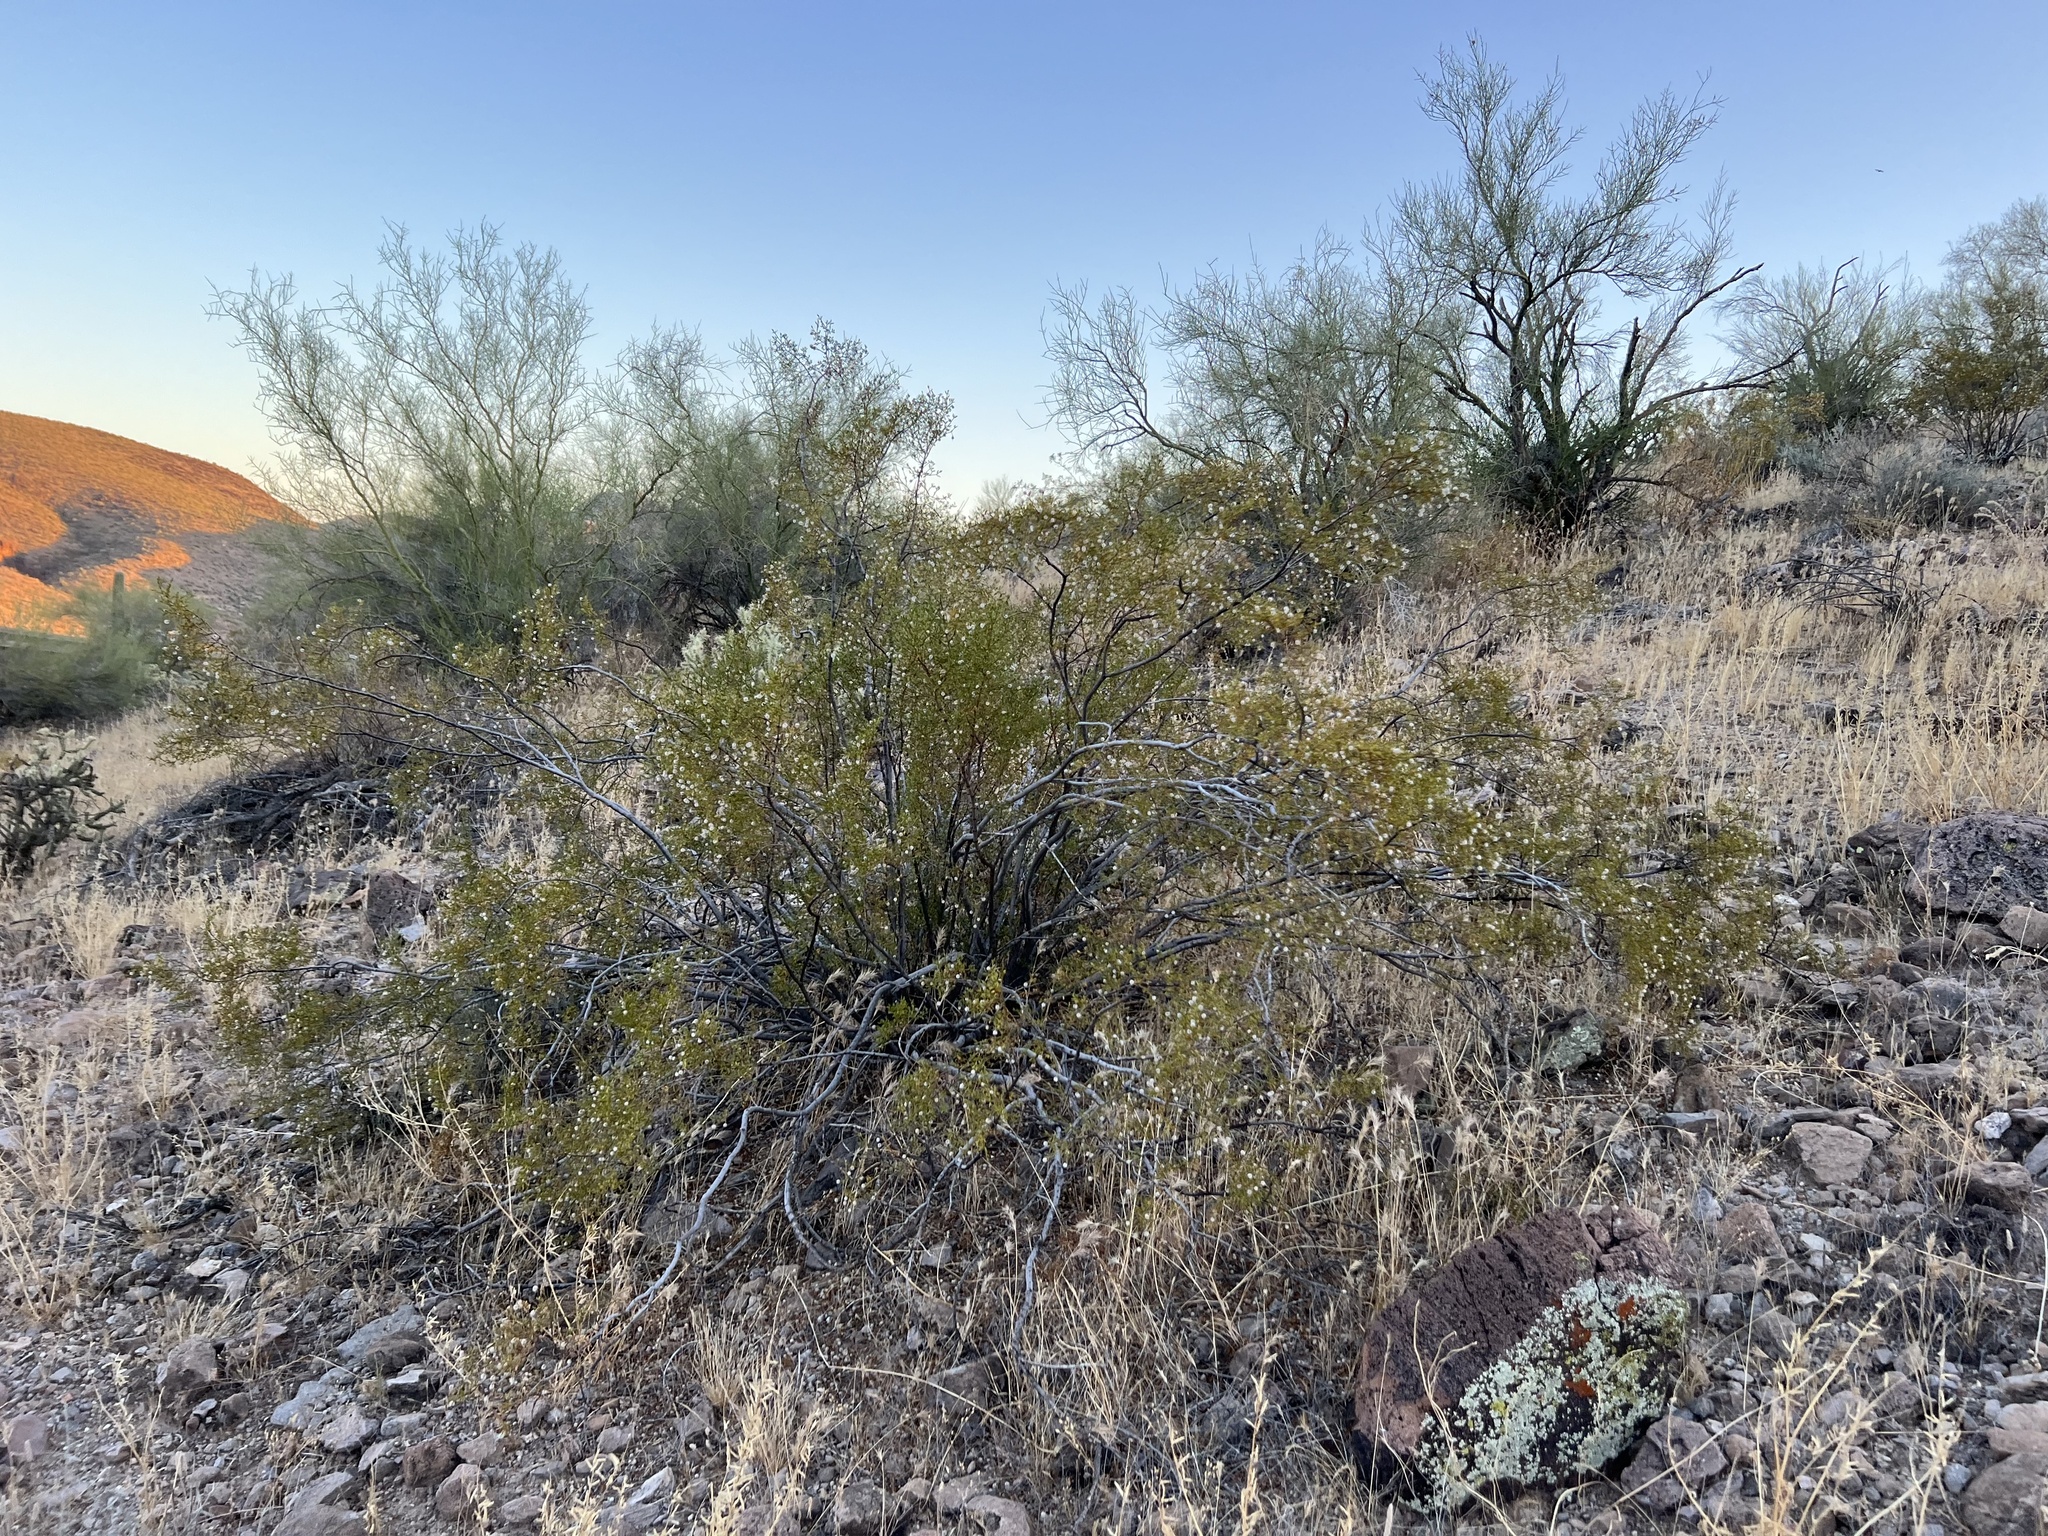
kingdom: Plantae
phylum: Tracheophyta
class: Magnoliopsida
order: Zygophyllales
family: Zygophyllaceae
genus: Larrea
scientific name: Larrea tridentata
